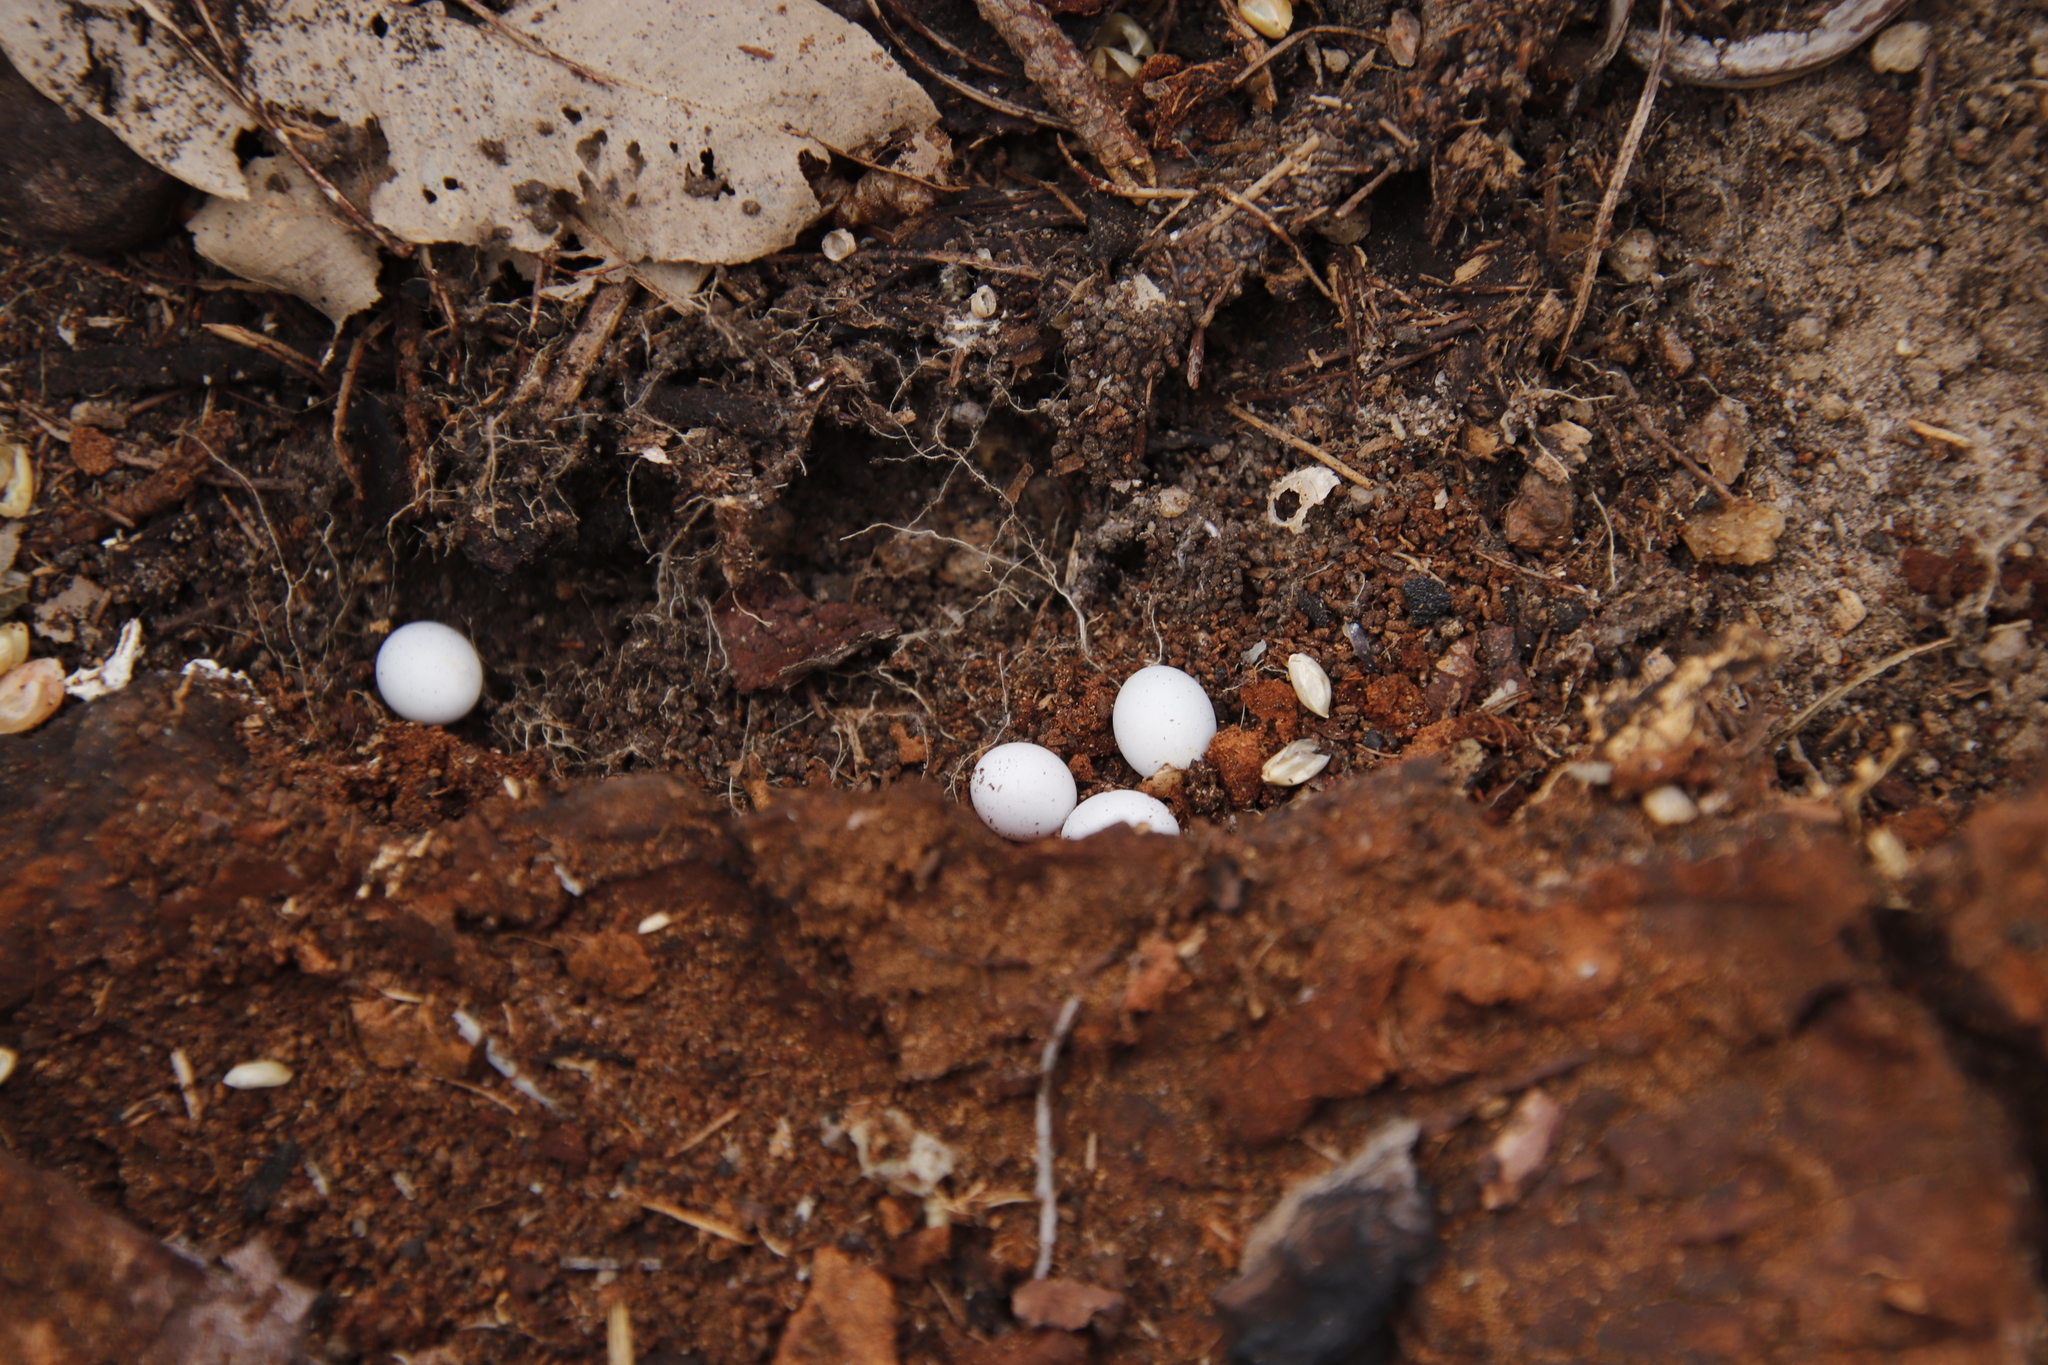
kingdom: Animalia
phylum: Chordata
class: Squamata
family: Gekkonidae
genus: Afrogecko
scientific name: Afrogecko porphyreus
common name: Marbled leaf-toed gecko
